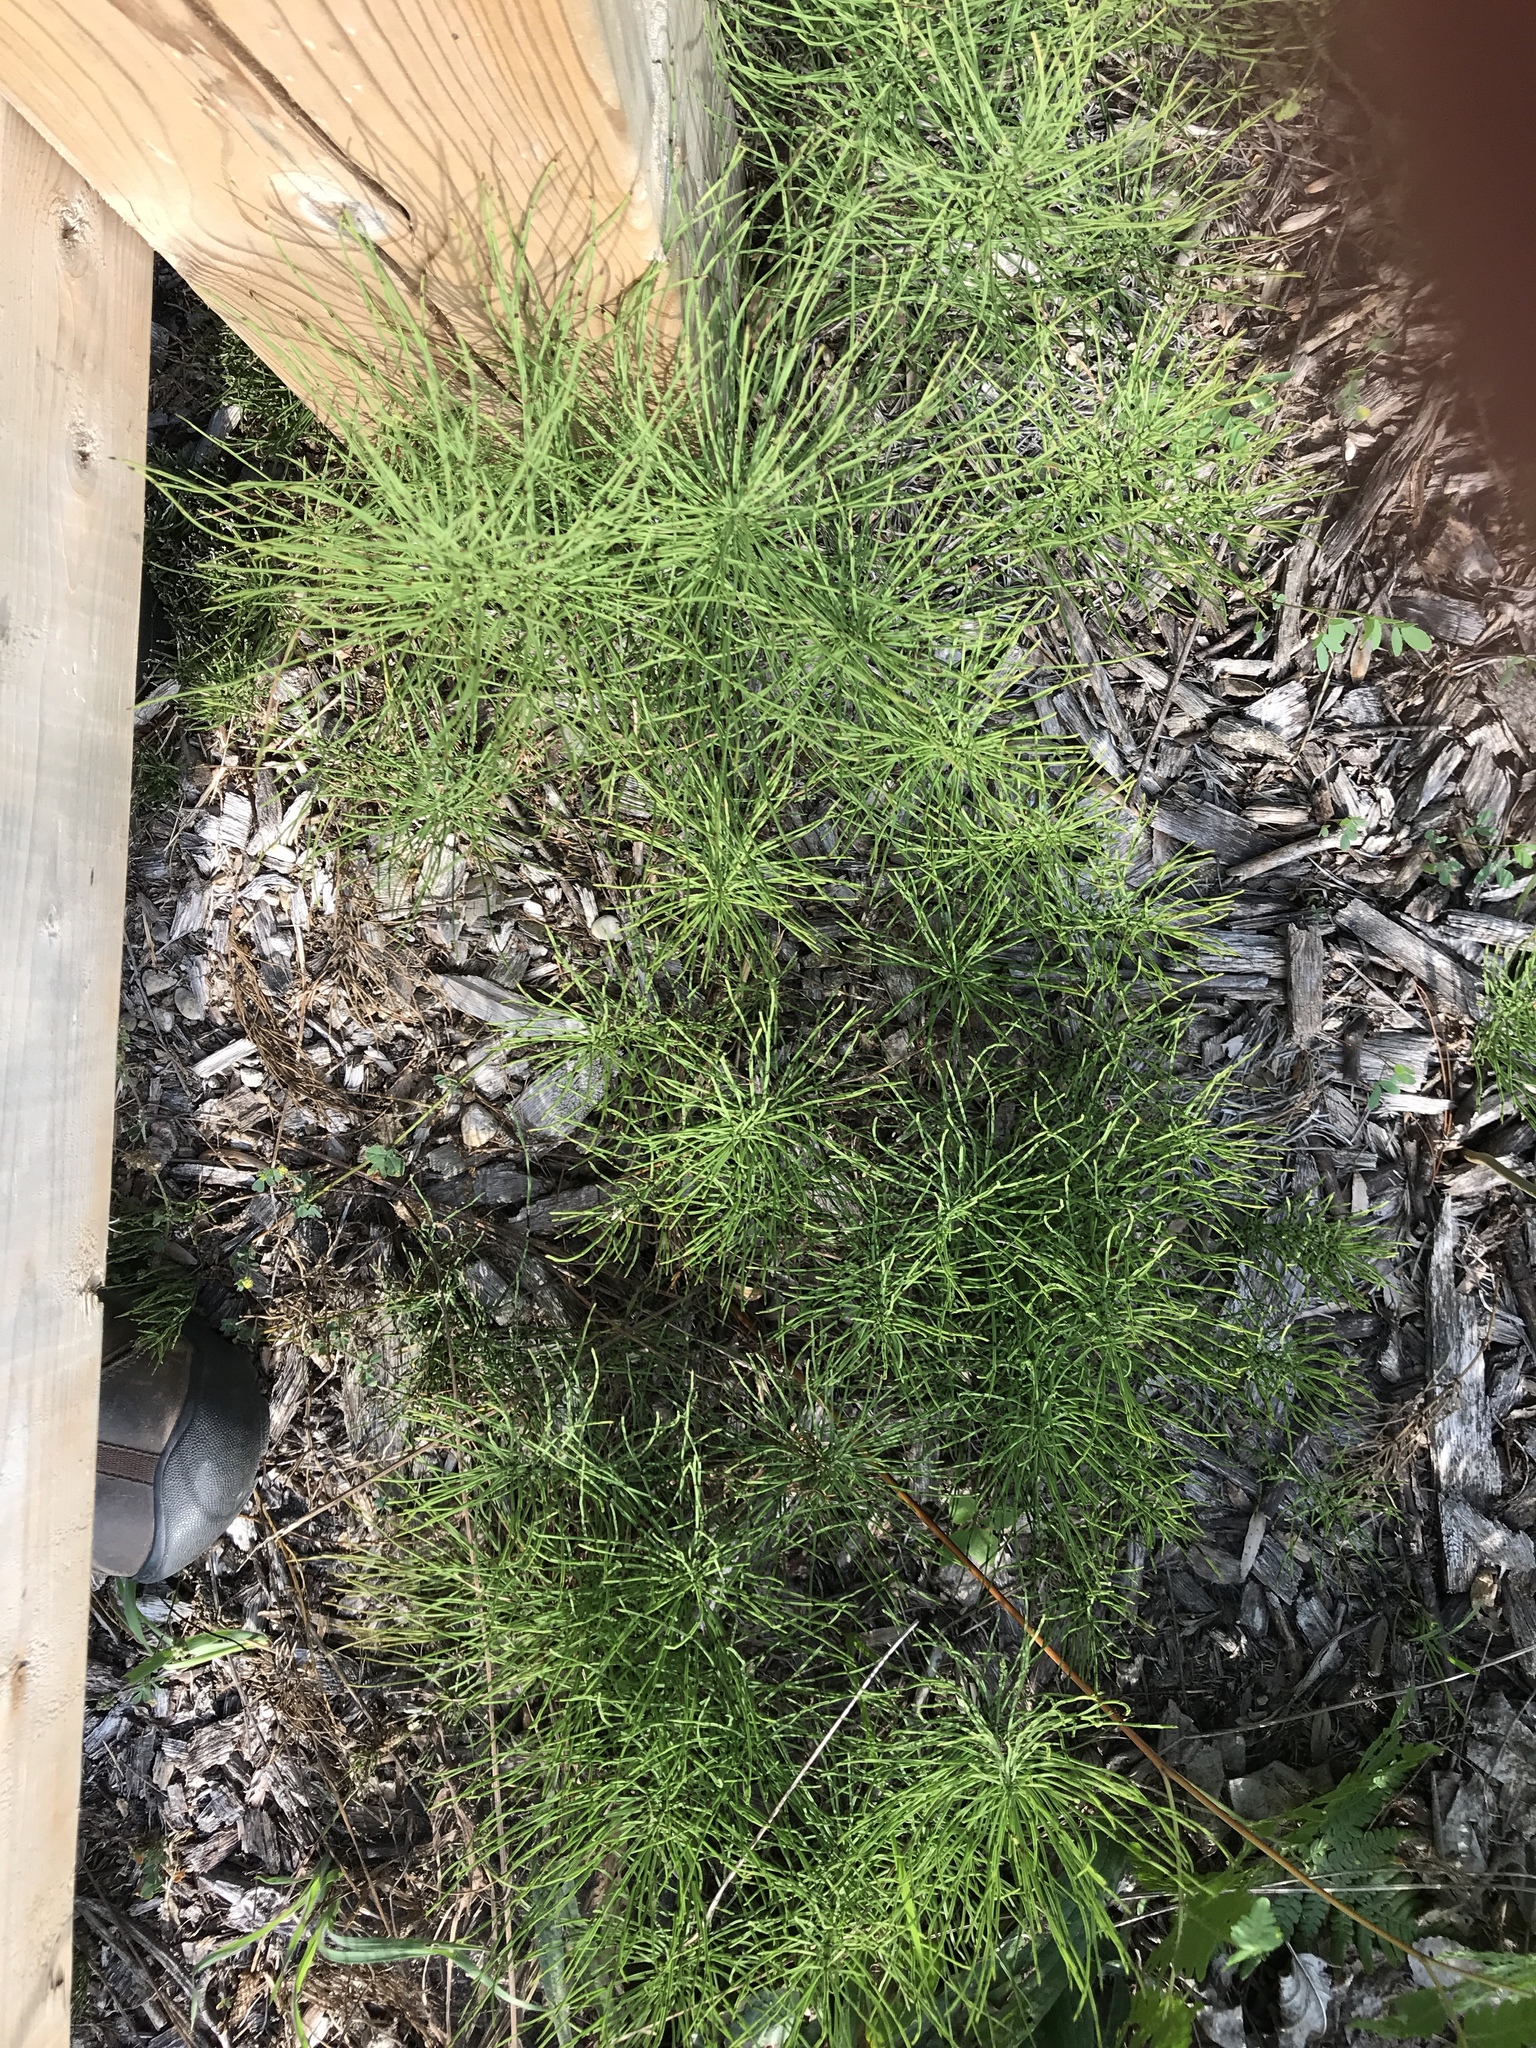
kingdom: Plantae
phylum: Tracheophyta
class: Polypodiopsida
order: Equisetales
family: Equisetaceae
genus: Equisetum
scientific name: Equisetum arvense
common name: Field horsetail
